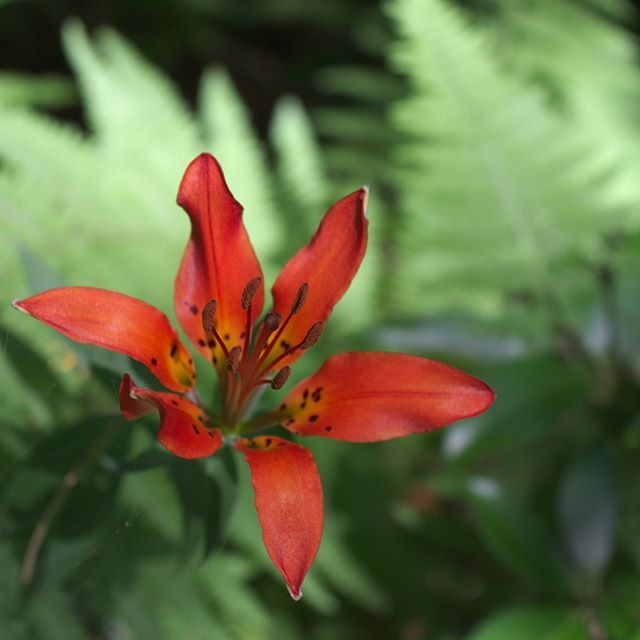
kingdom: Plantae
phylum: Tracheophyta
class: Liliopsida
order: Liliales
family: Liliaceae
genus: Lilium
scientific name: Lilium philadelphicum
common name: Red lily
